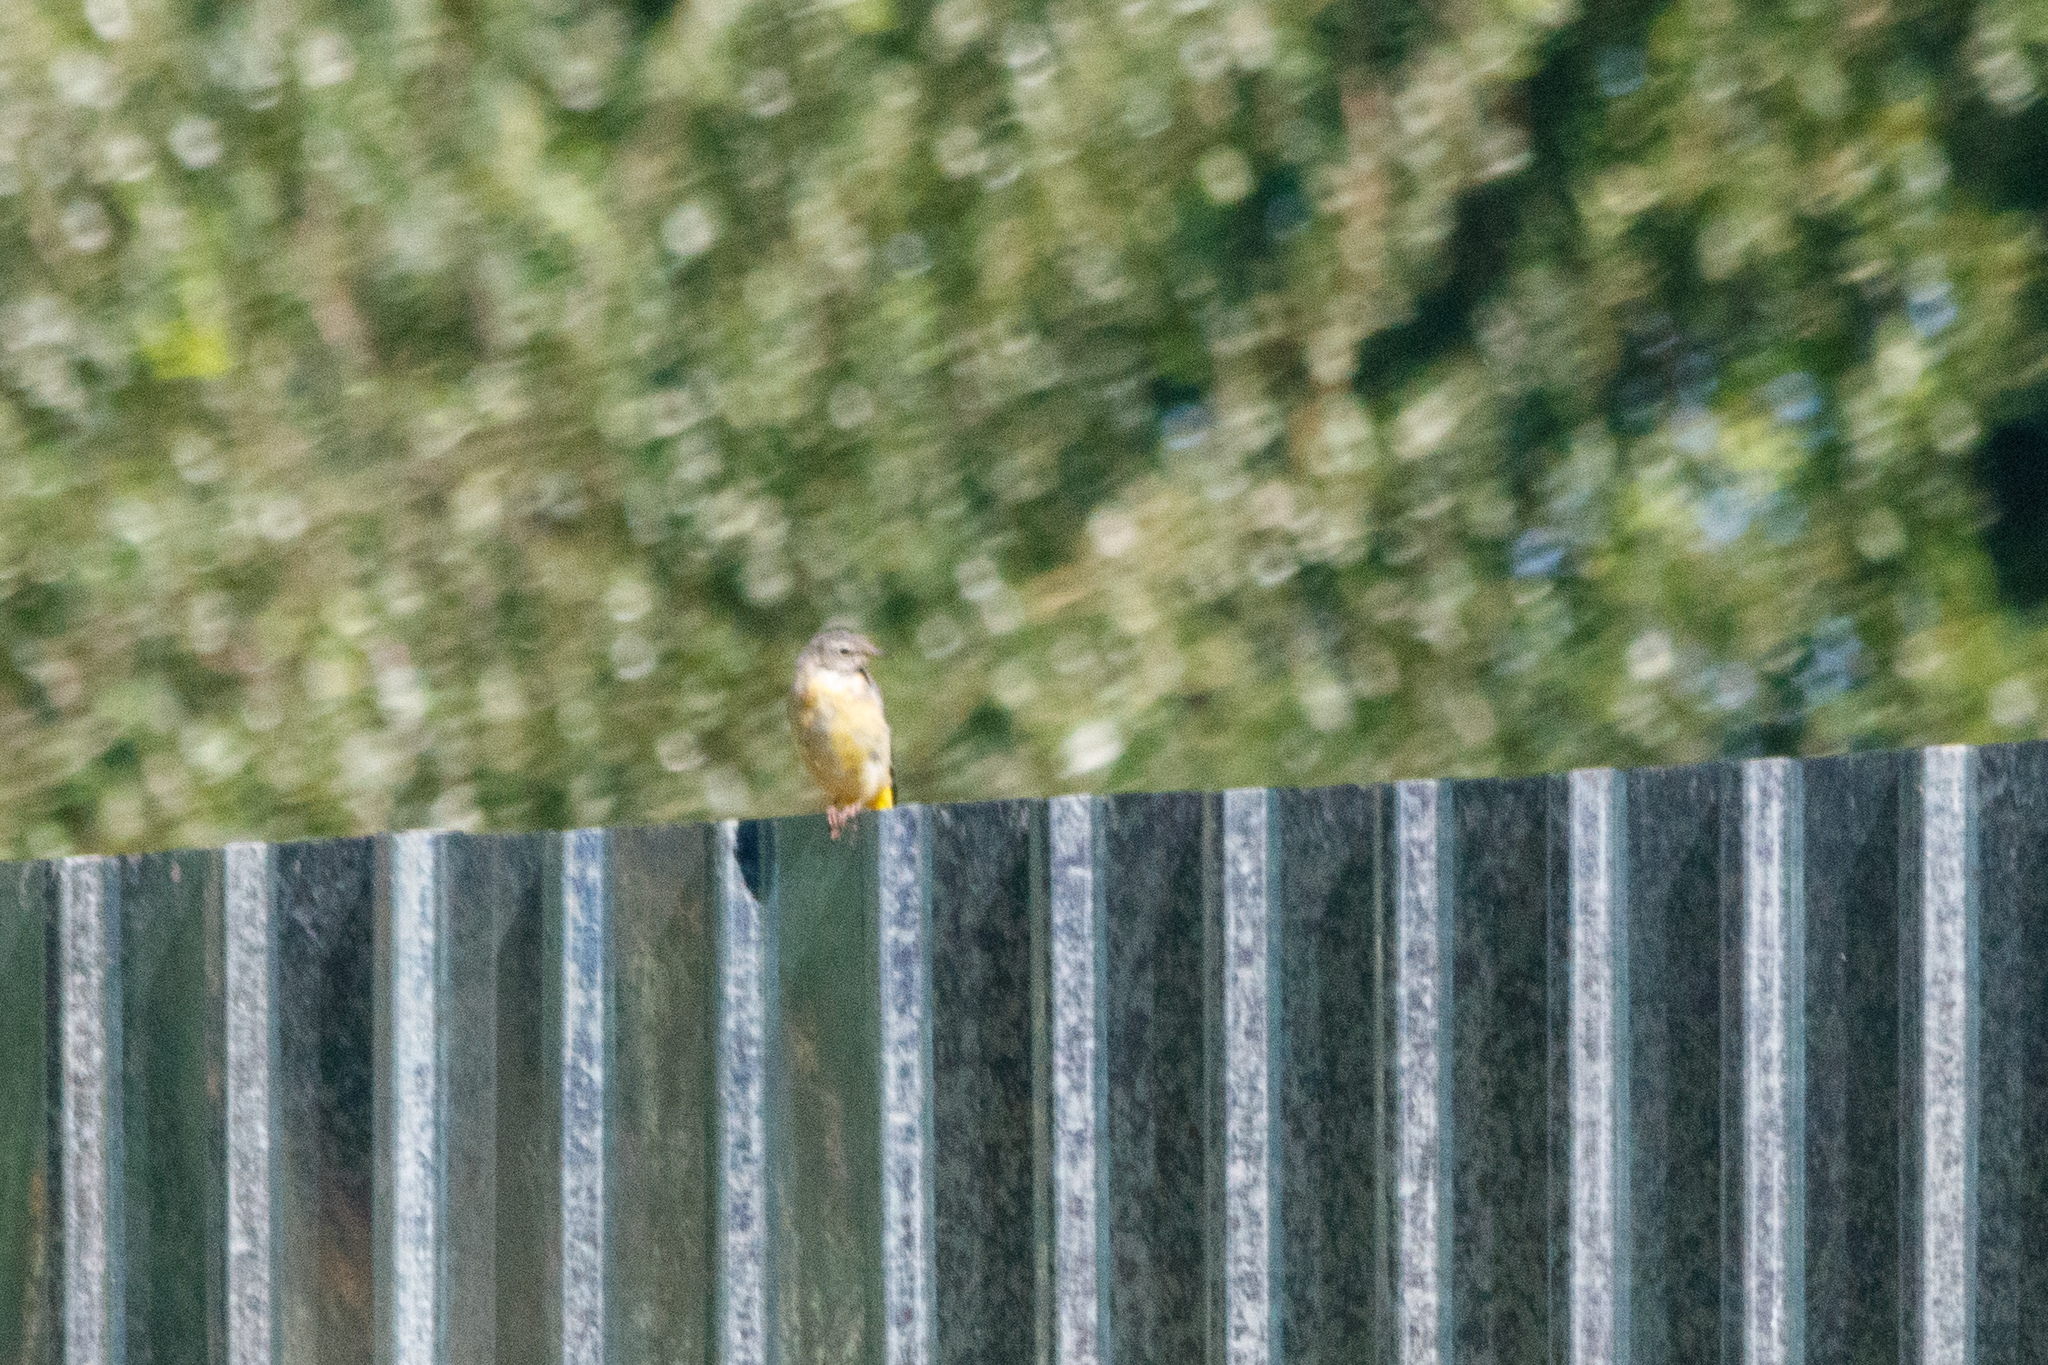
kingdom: Animalia
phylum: Chordata
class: Aves
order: Passeriformes
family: Motacillidae
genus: Motacilla
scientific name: Motacilla cinerea
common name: Grey wagtail
